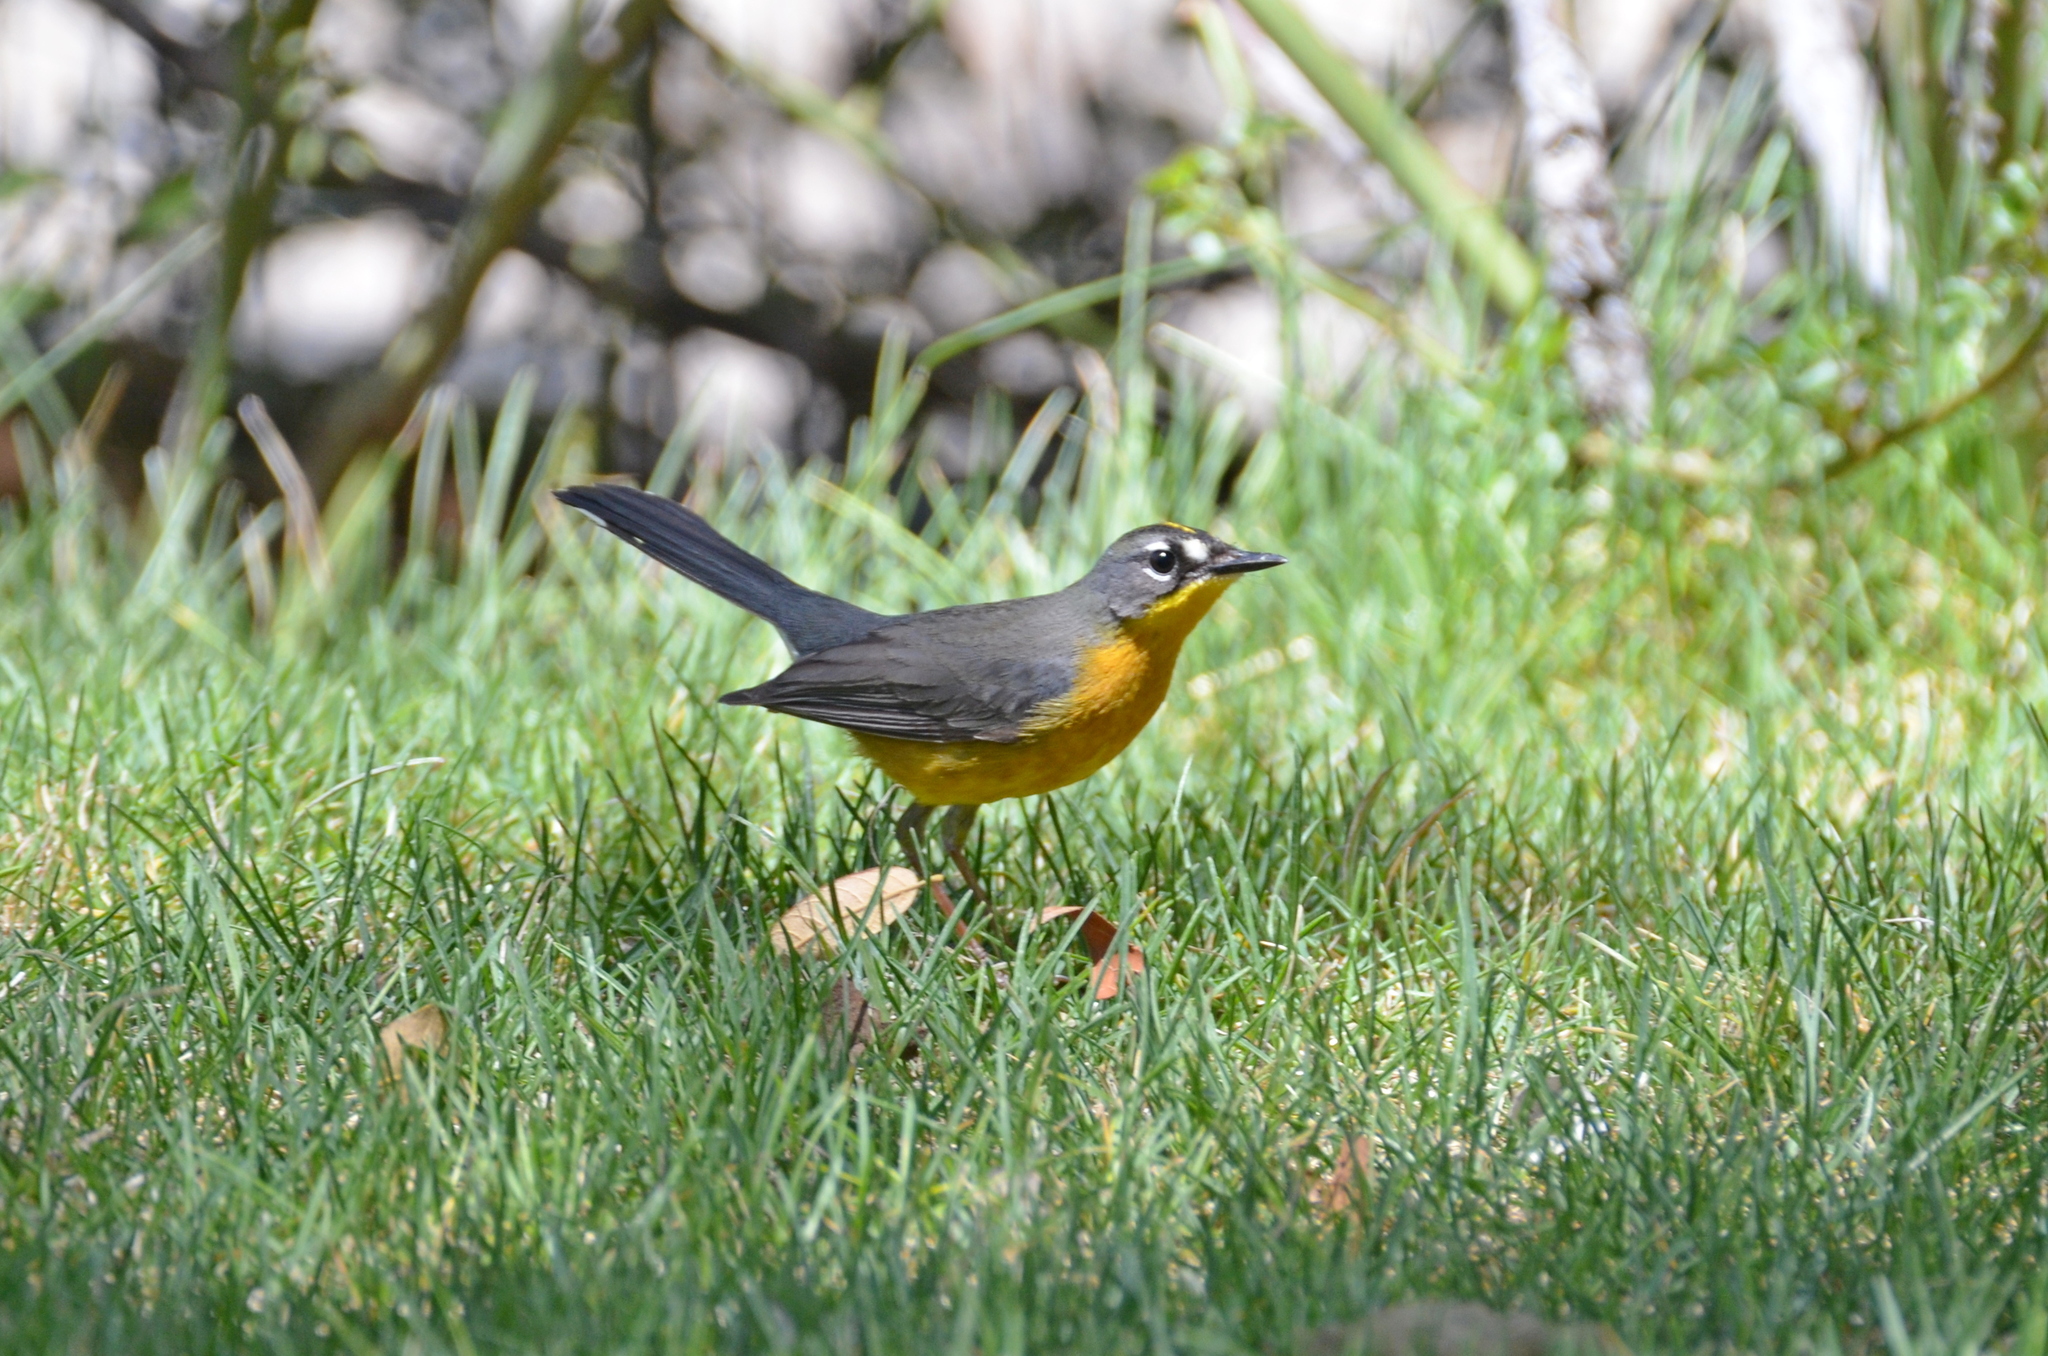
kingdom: Animalia
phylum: Chordata
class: Aves
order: Passeriformes
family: Parulidae
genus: Basileuterus
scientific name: Basileuterus lachrymosus
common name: Fan-tailed warbler
